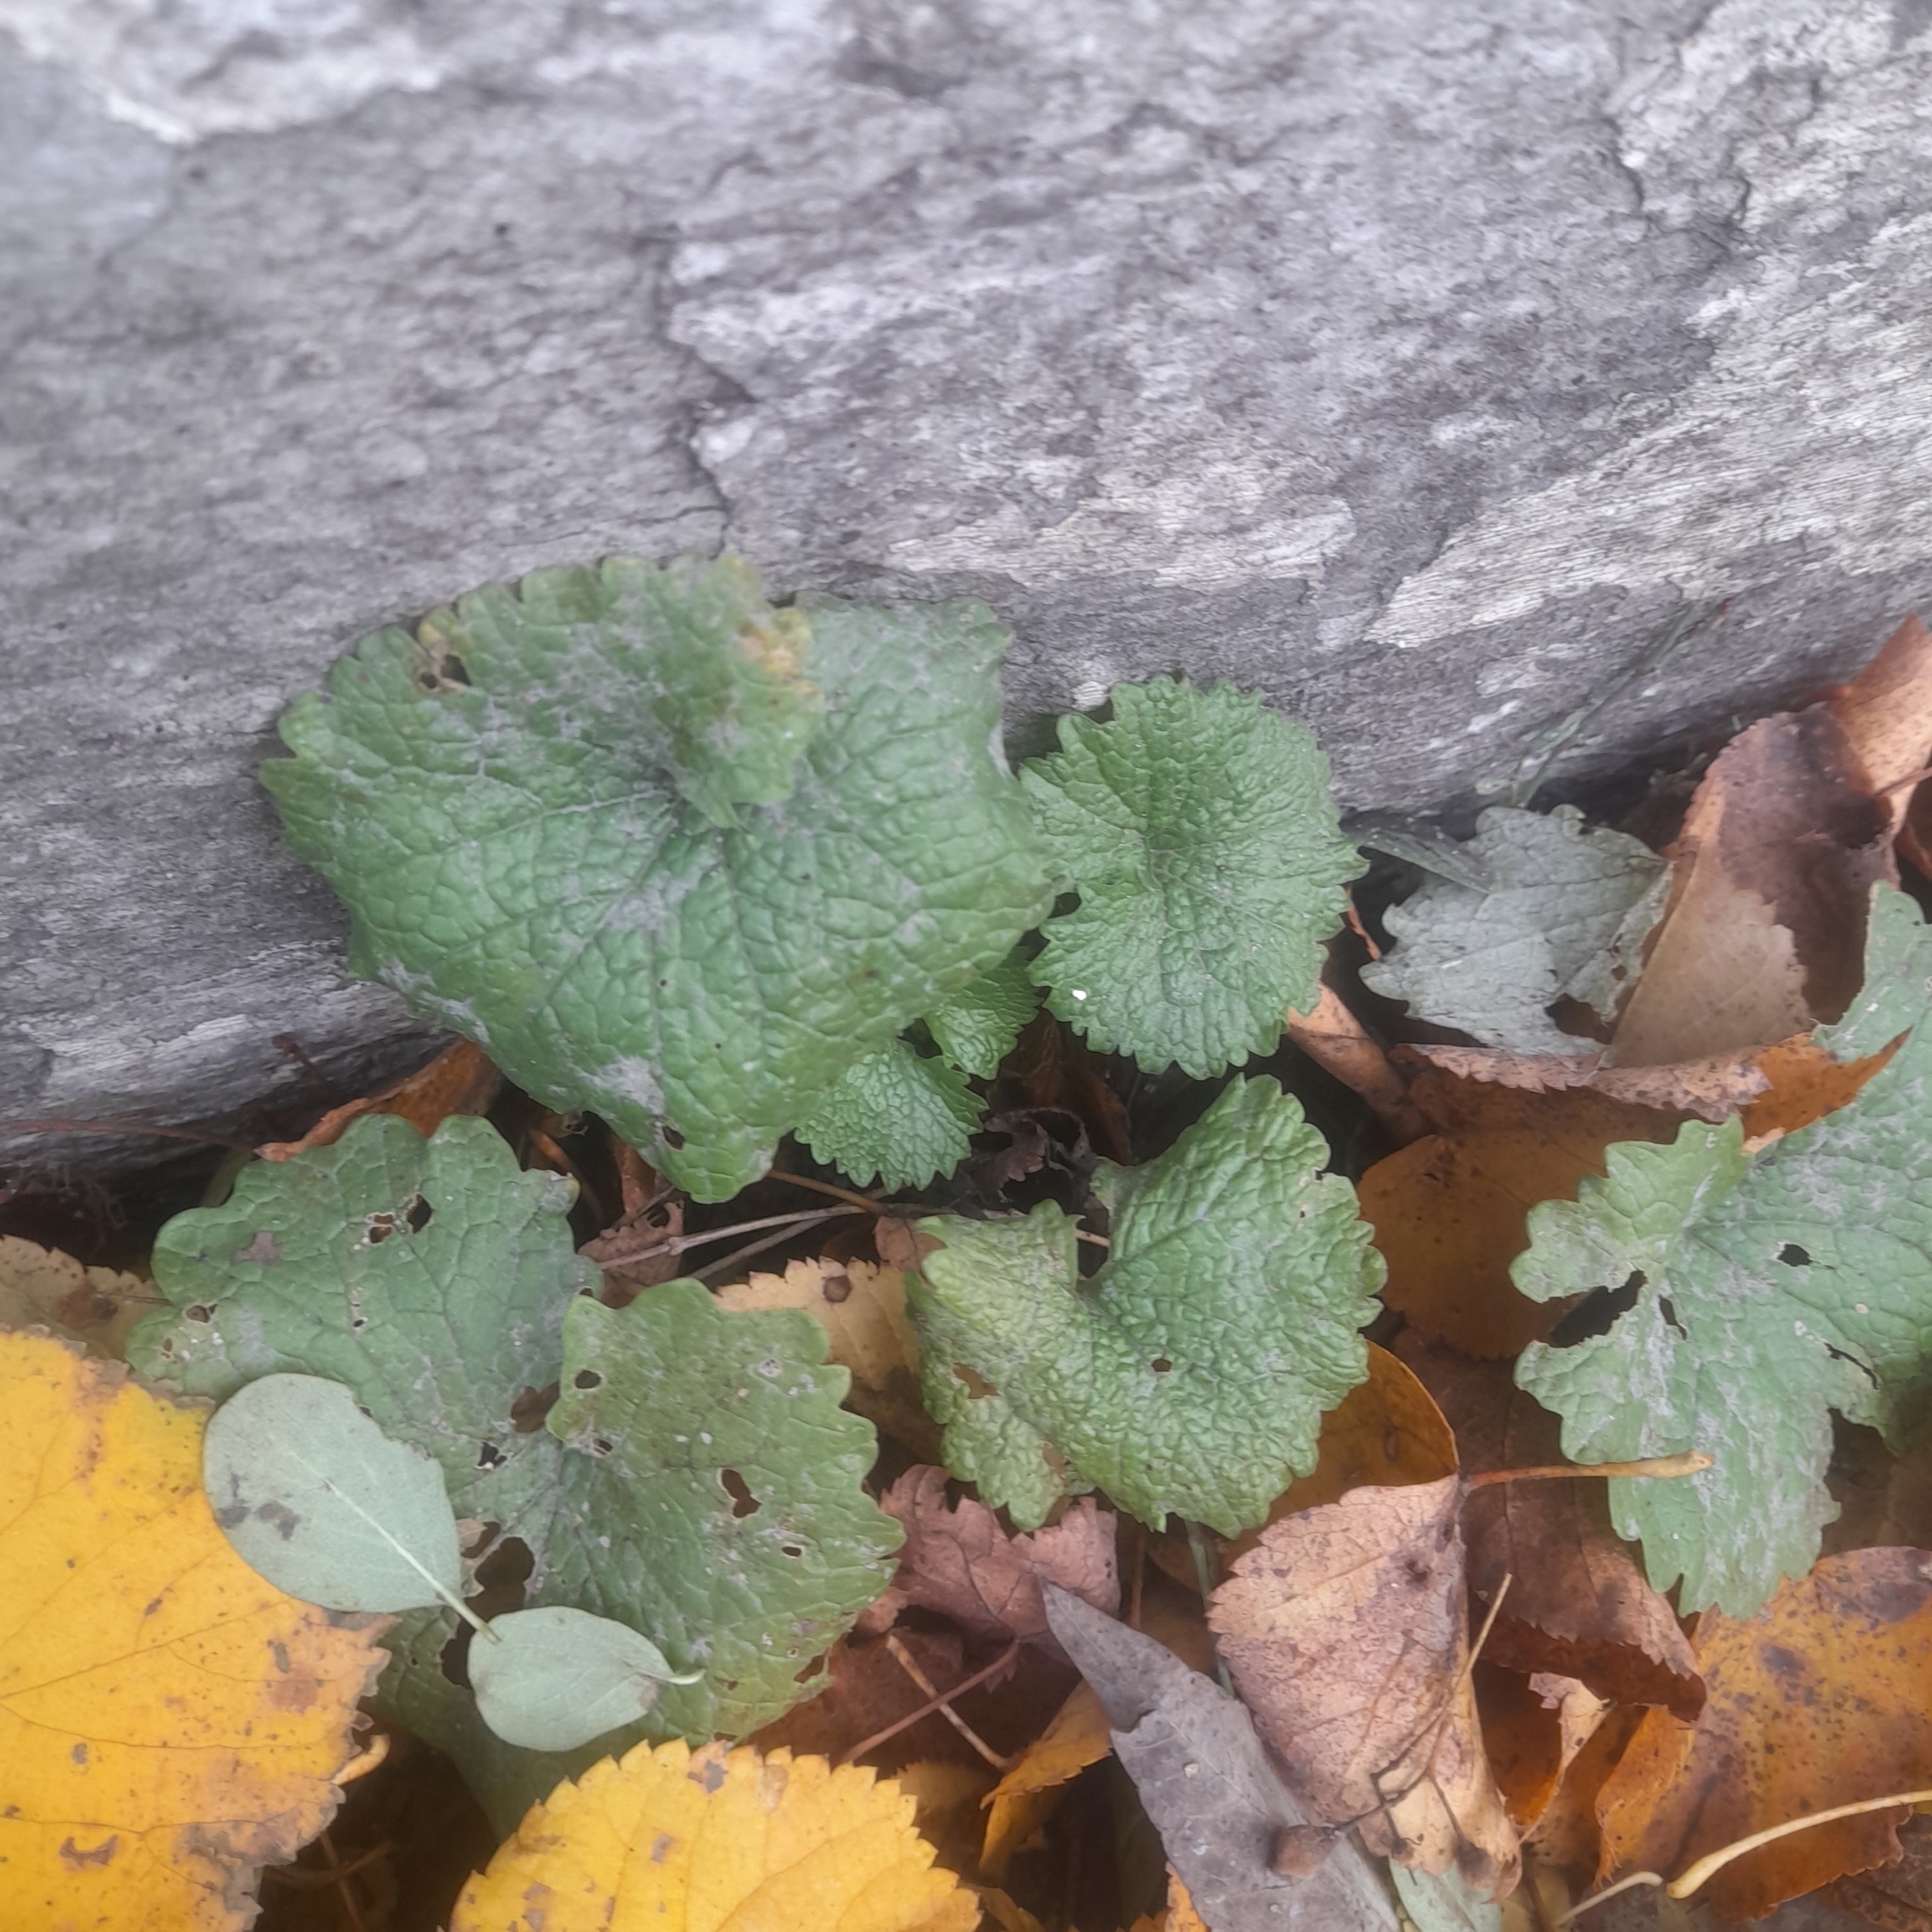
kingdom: Plantae
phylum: Tracheophyta
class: Magnoliopsida
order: Brassicales
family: Brassicaceae
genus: Alliaria
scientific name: Alliaria petiolata
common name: Garlic mustard
